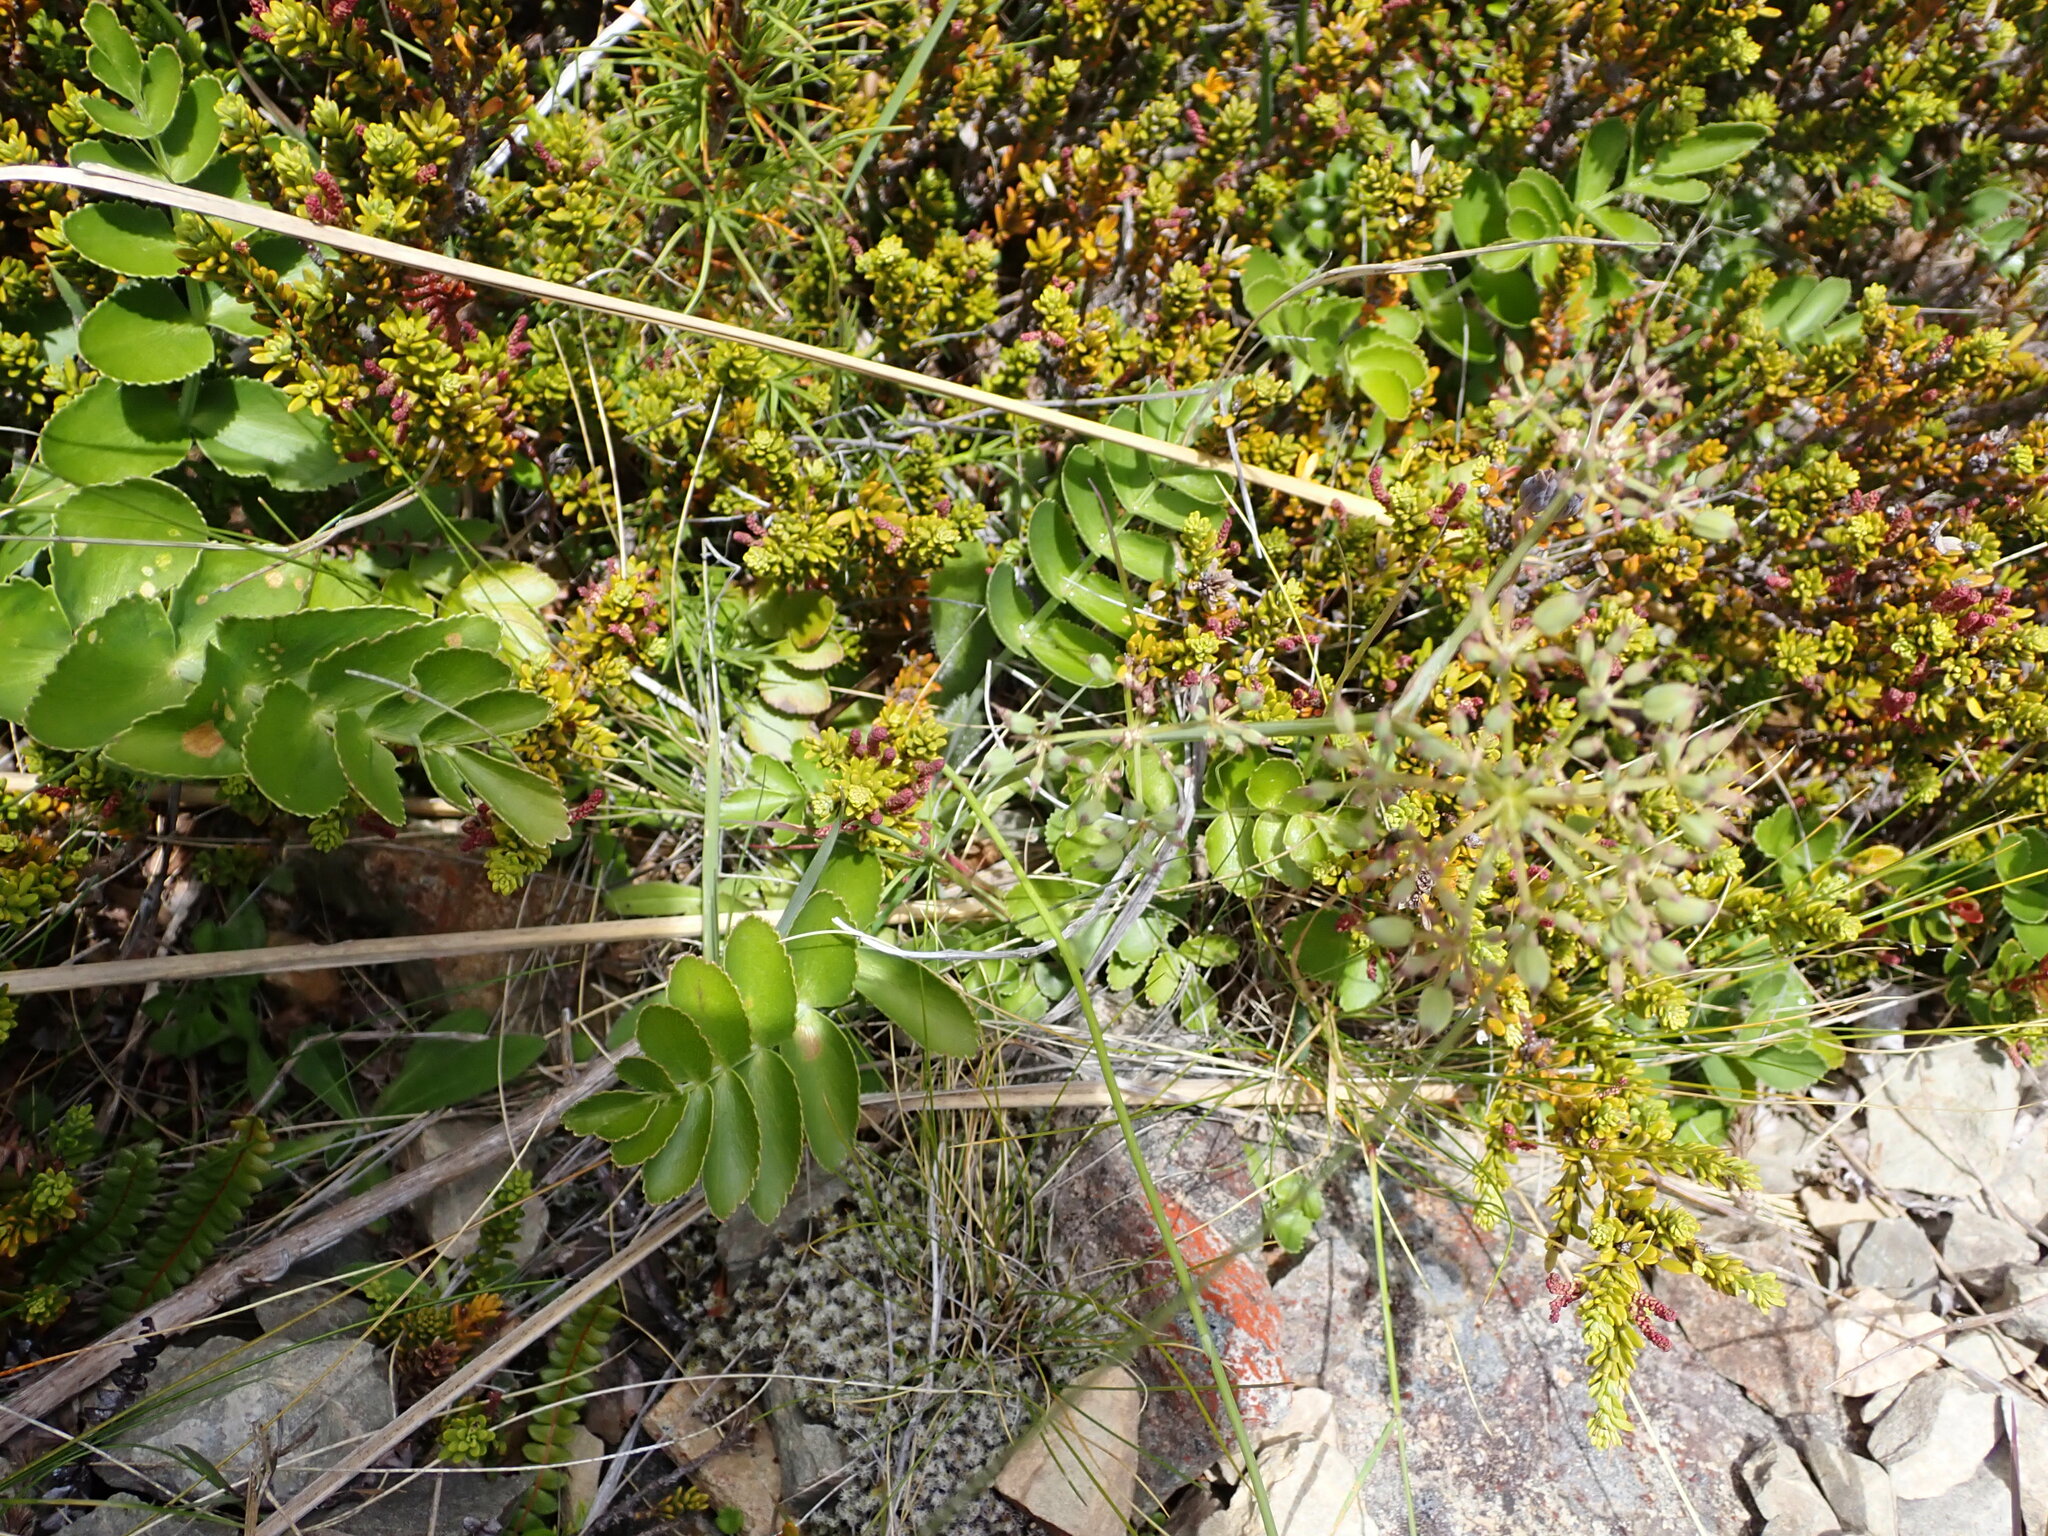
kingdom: Plantae
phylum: Tracheophyta
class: Magnoliopsida
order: Apiales
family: Apiaceae
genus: Gingidia
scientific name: Gingidia montana
